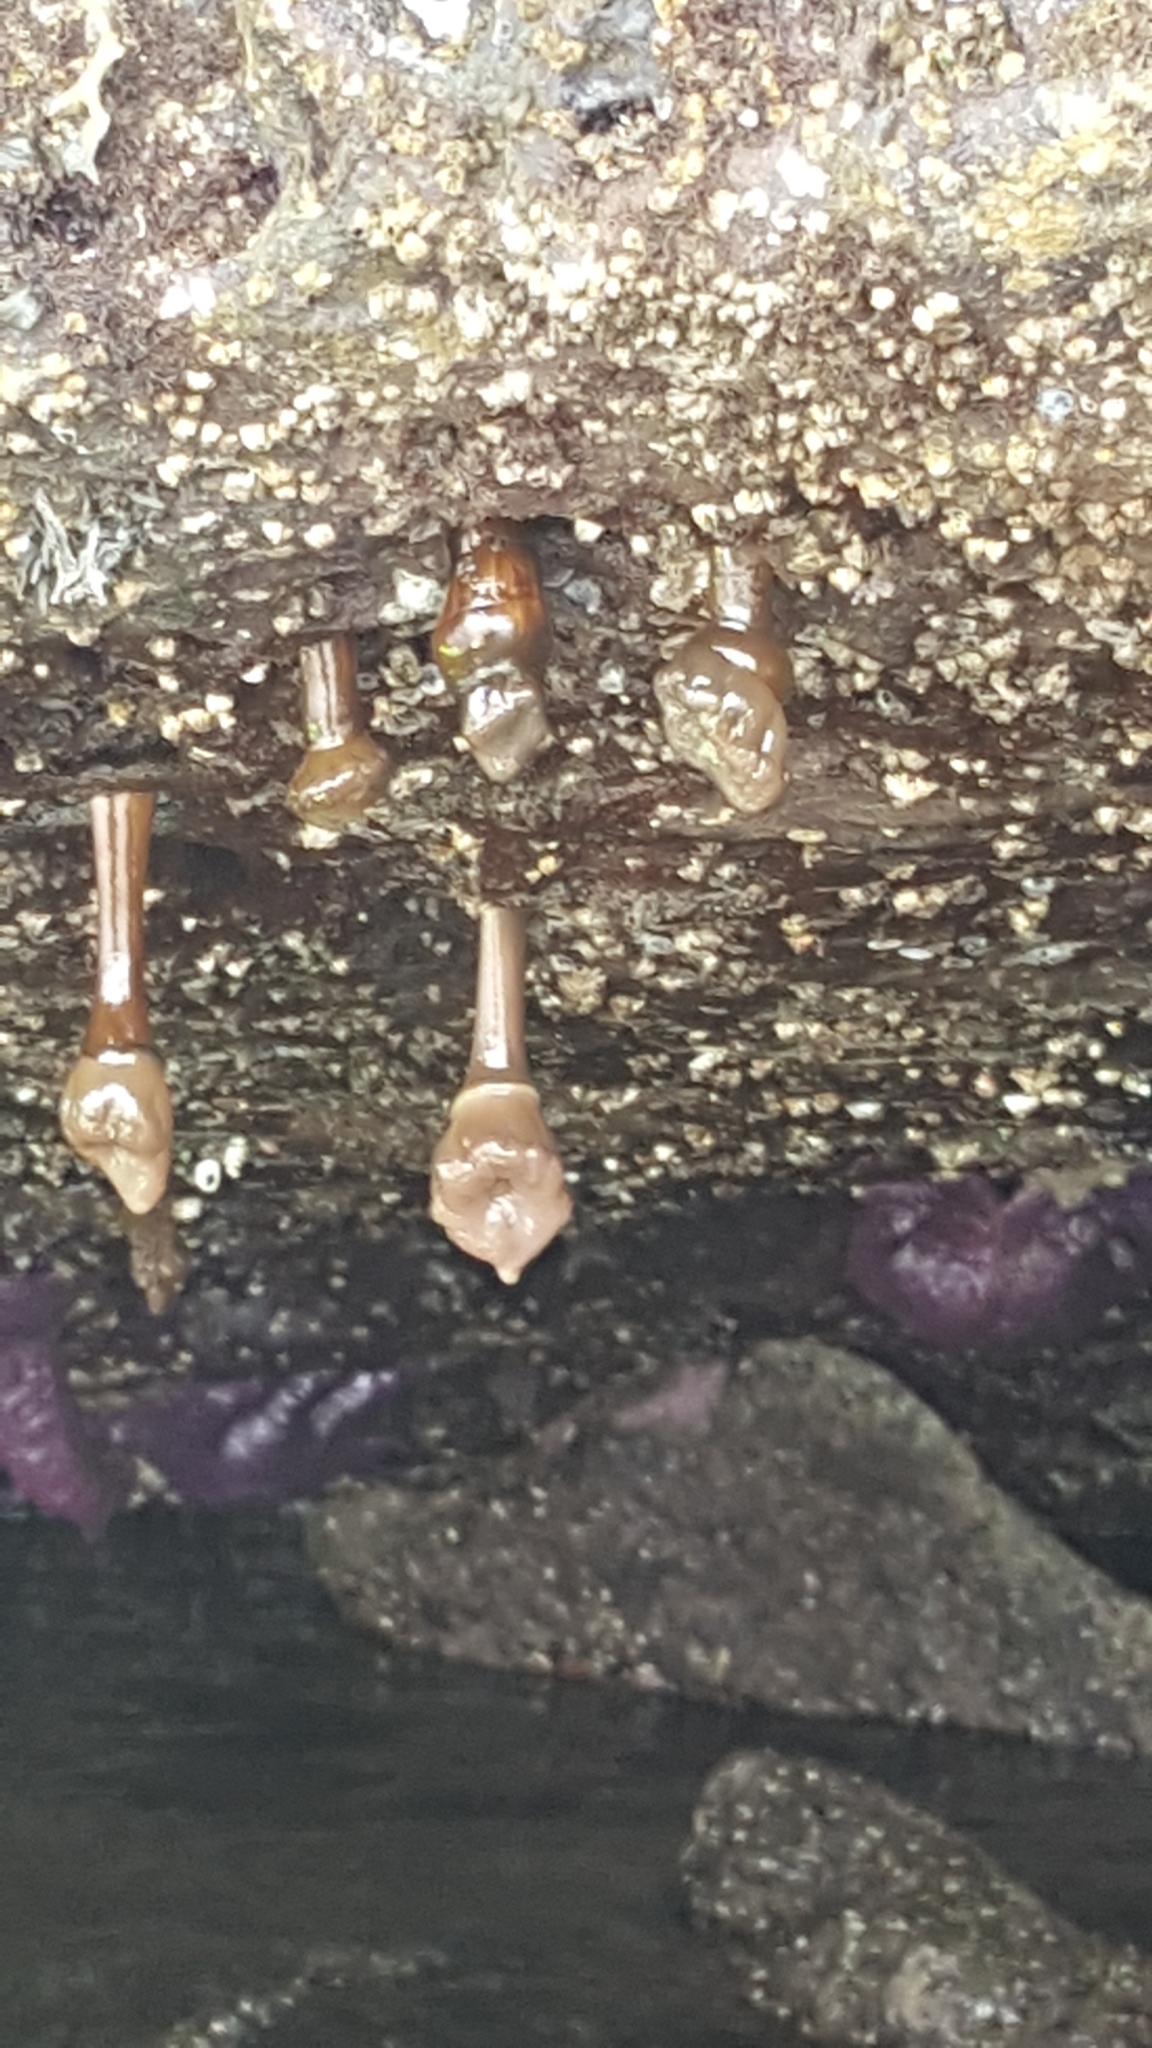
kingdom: Animalia
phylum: Cnidaria
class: Anthozoa
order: Actiniaria
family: Metridiidae
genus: Metridium
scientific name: Metridium senile
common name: Clonal plumose anemone
